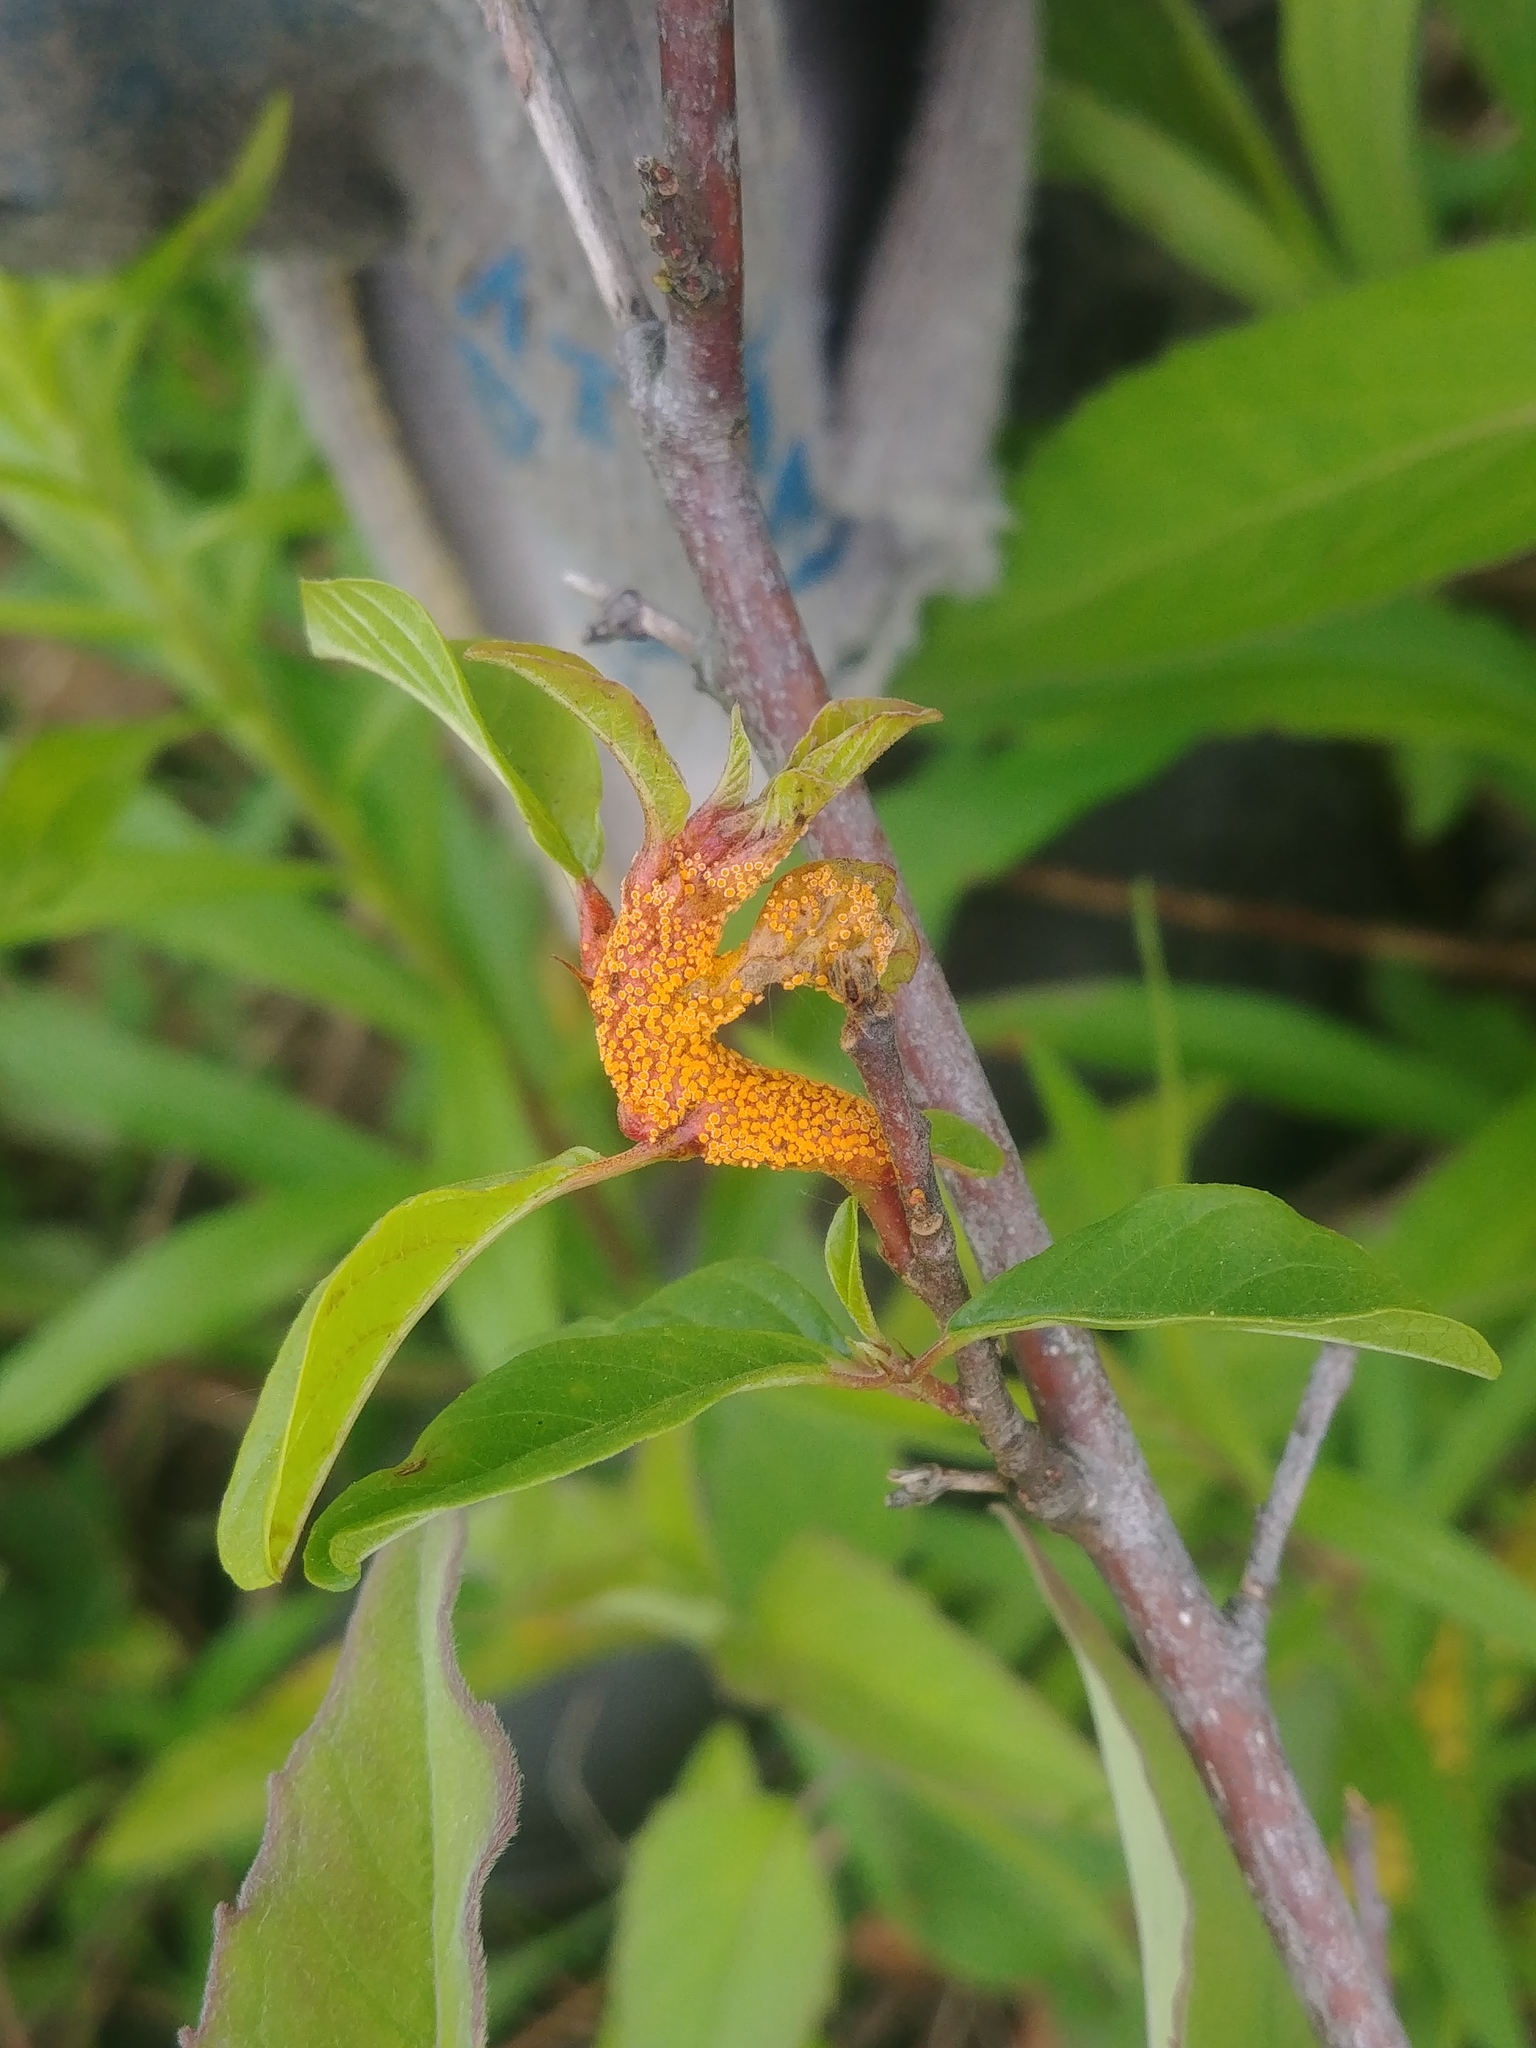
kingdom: Fungi
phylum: Basidiomycota
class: Pucciniomycetes
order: Pucciniales
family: Pucciniaceae
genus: Puccinia
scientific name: Puccinia coronata
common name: Crown rust
